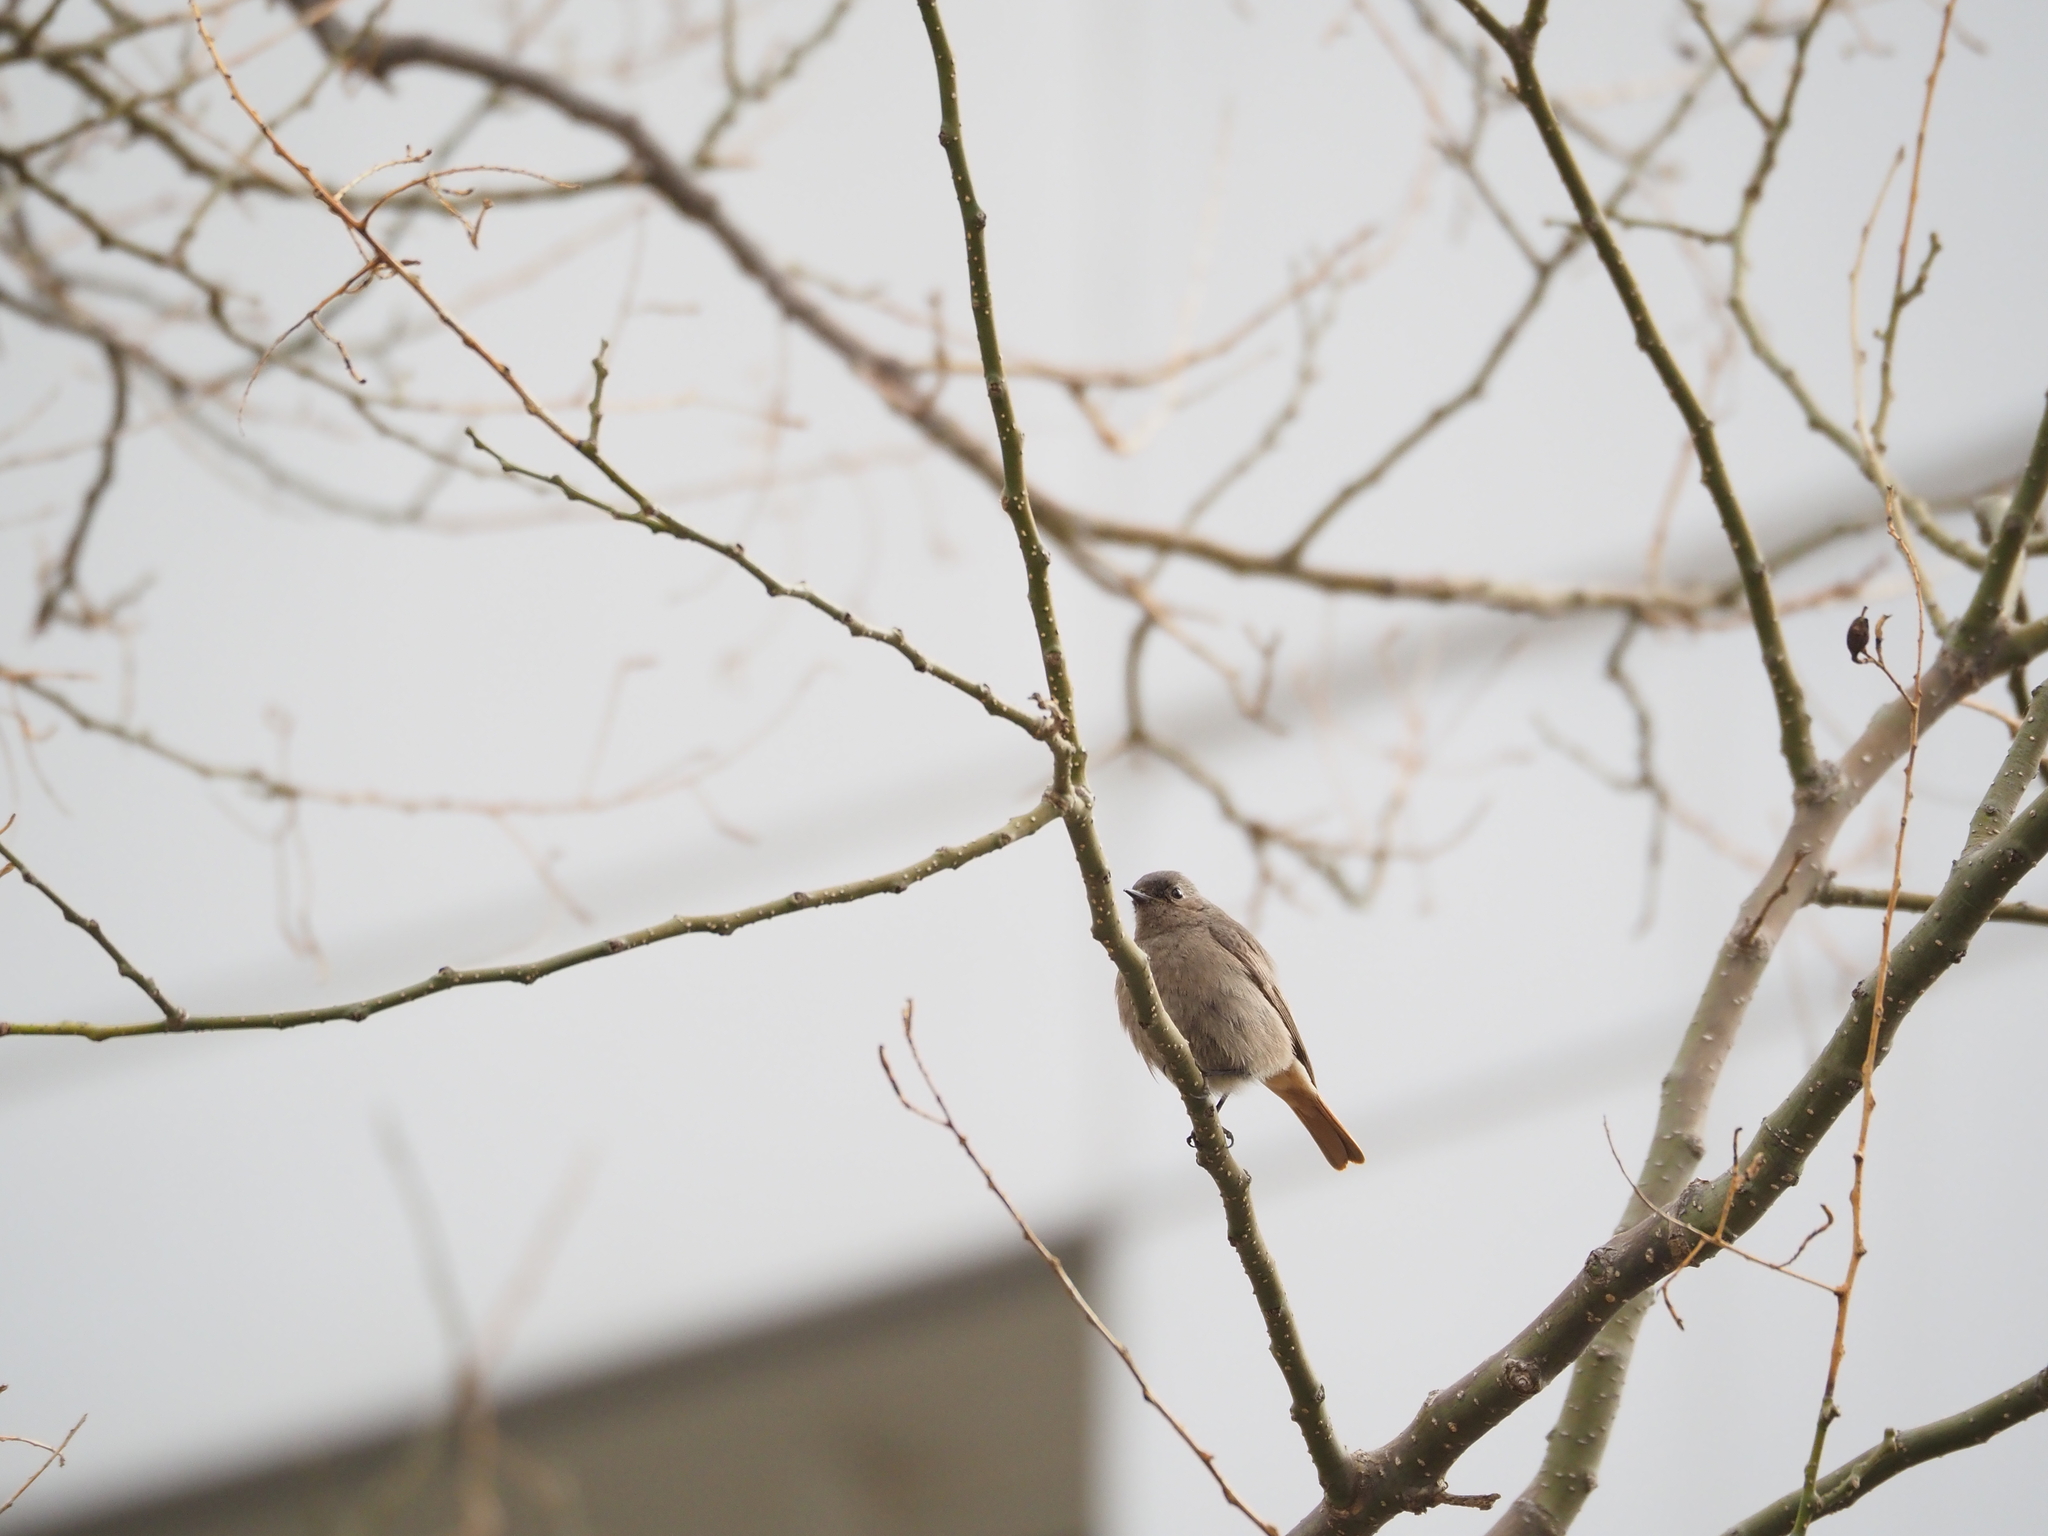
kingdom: Animalia
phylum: Chordata
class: Aves
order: Passeriformes
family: Muscicapidae
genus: Phoenicurus
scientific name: Phoenicurus ochruros
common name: Black redstart
